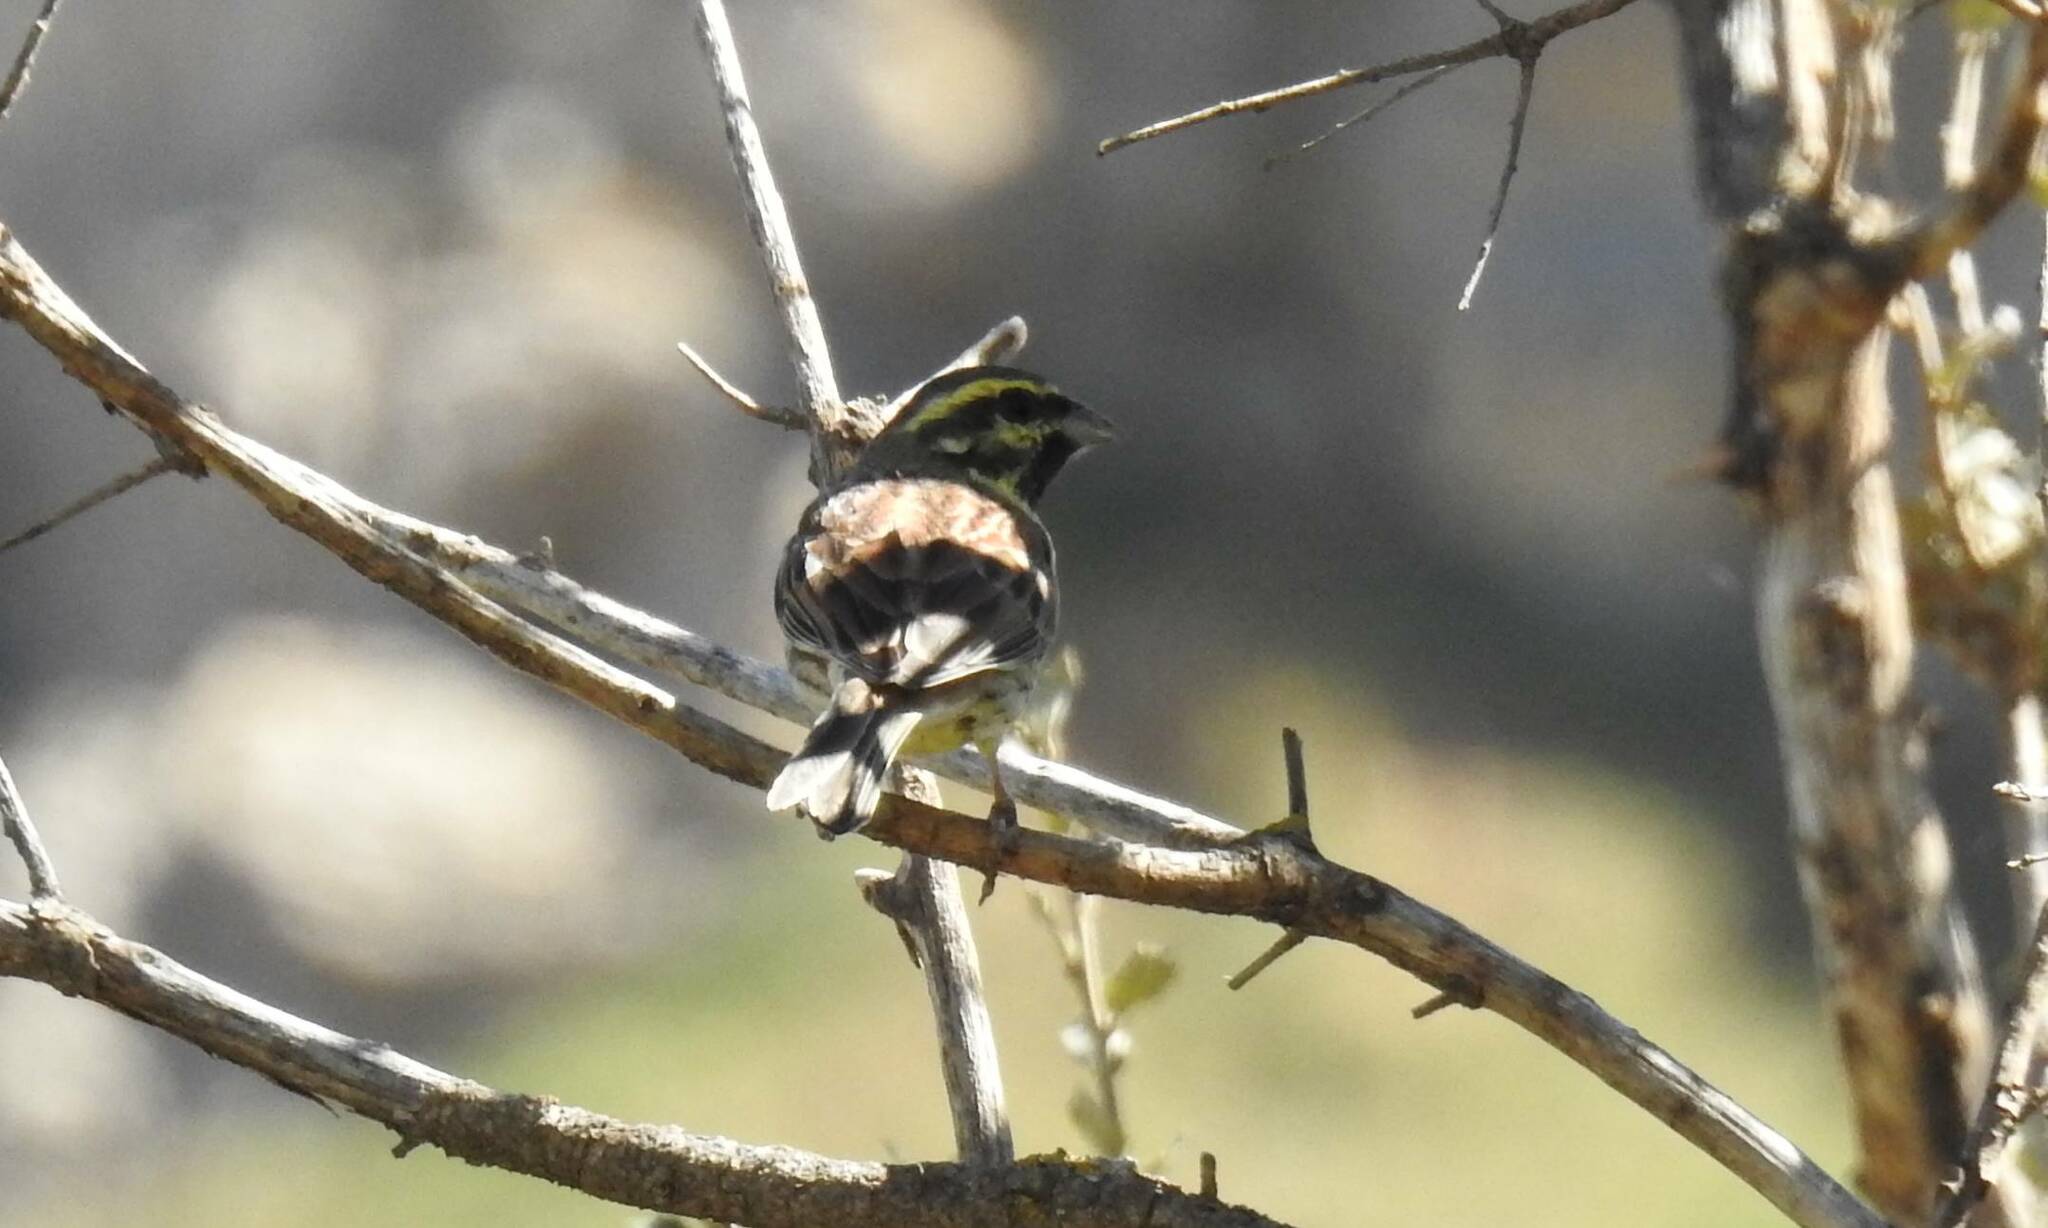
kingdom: Animalia
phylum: Chordata
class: Aves
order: Passeriformes
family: Emberizidae
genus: Emberiza
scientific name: Emberiza cirlus
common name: Cirl bunting
